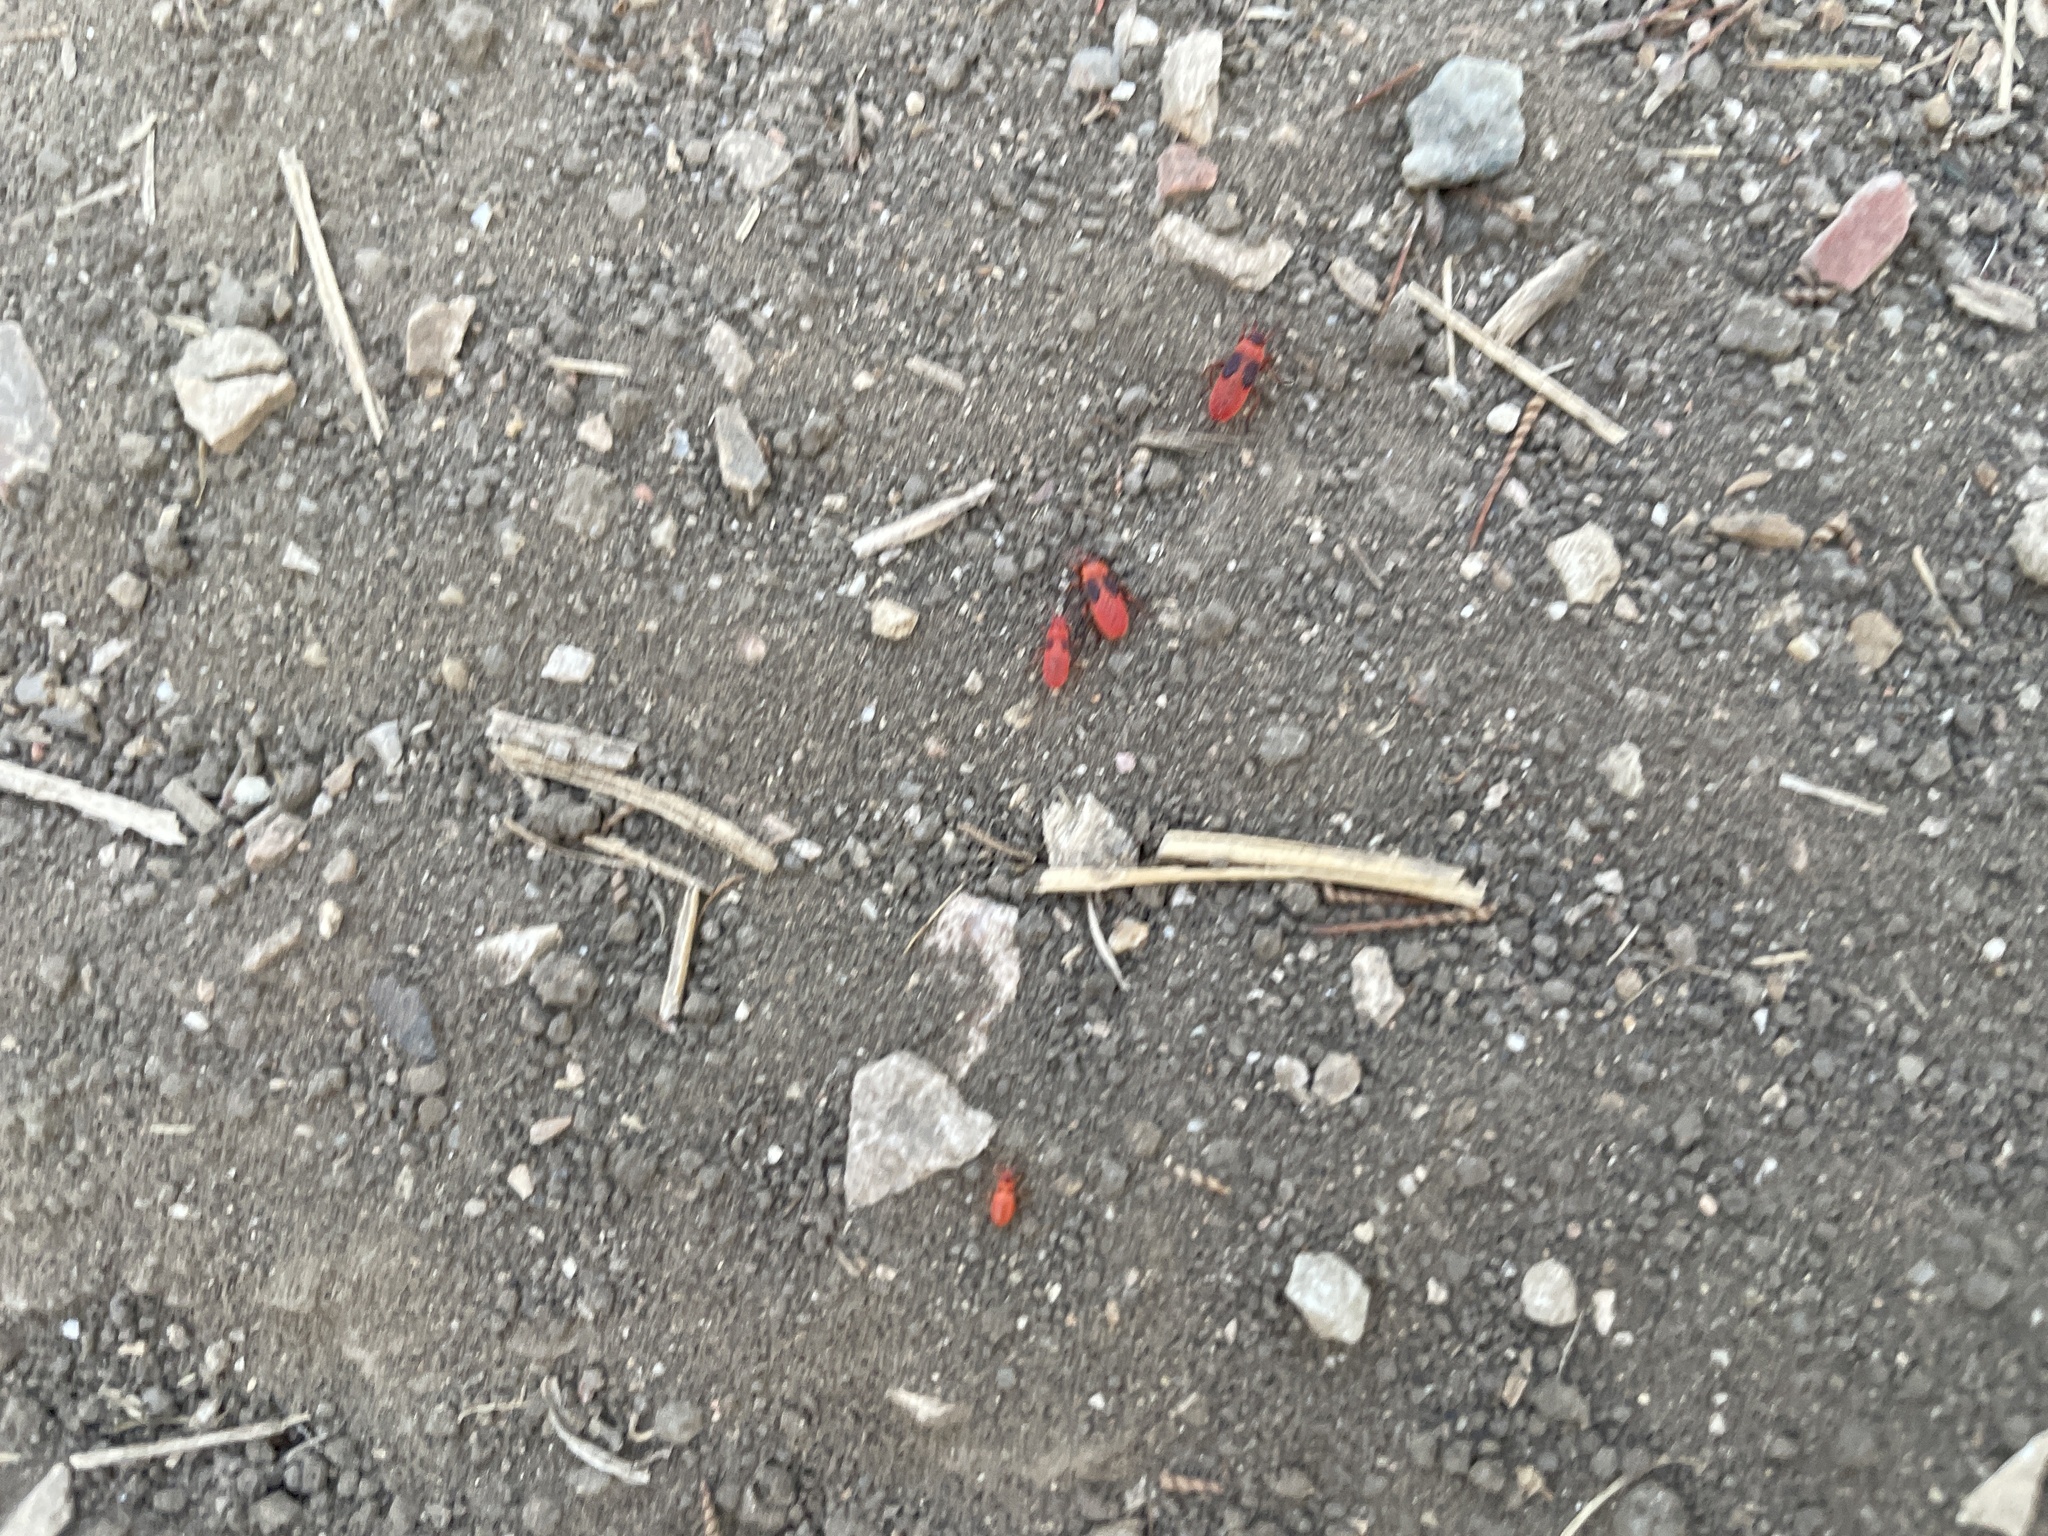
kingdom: Animalia
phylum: Arthropoda
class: Insecta
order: Hemiptera
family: Pyrrhocoridae
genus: Scantius
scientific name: Scantius aegyptius
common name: Red bug
